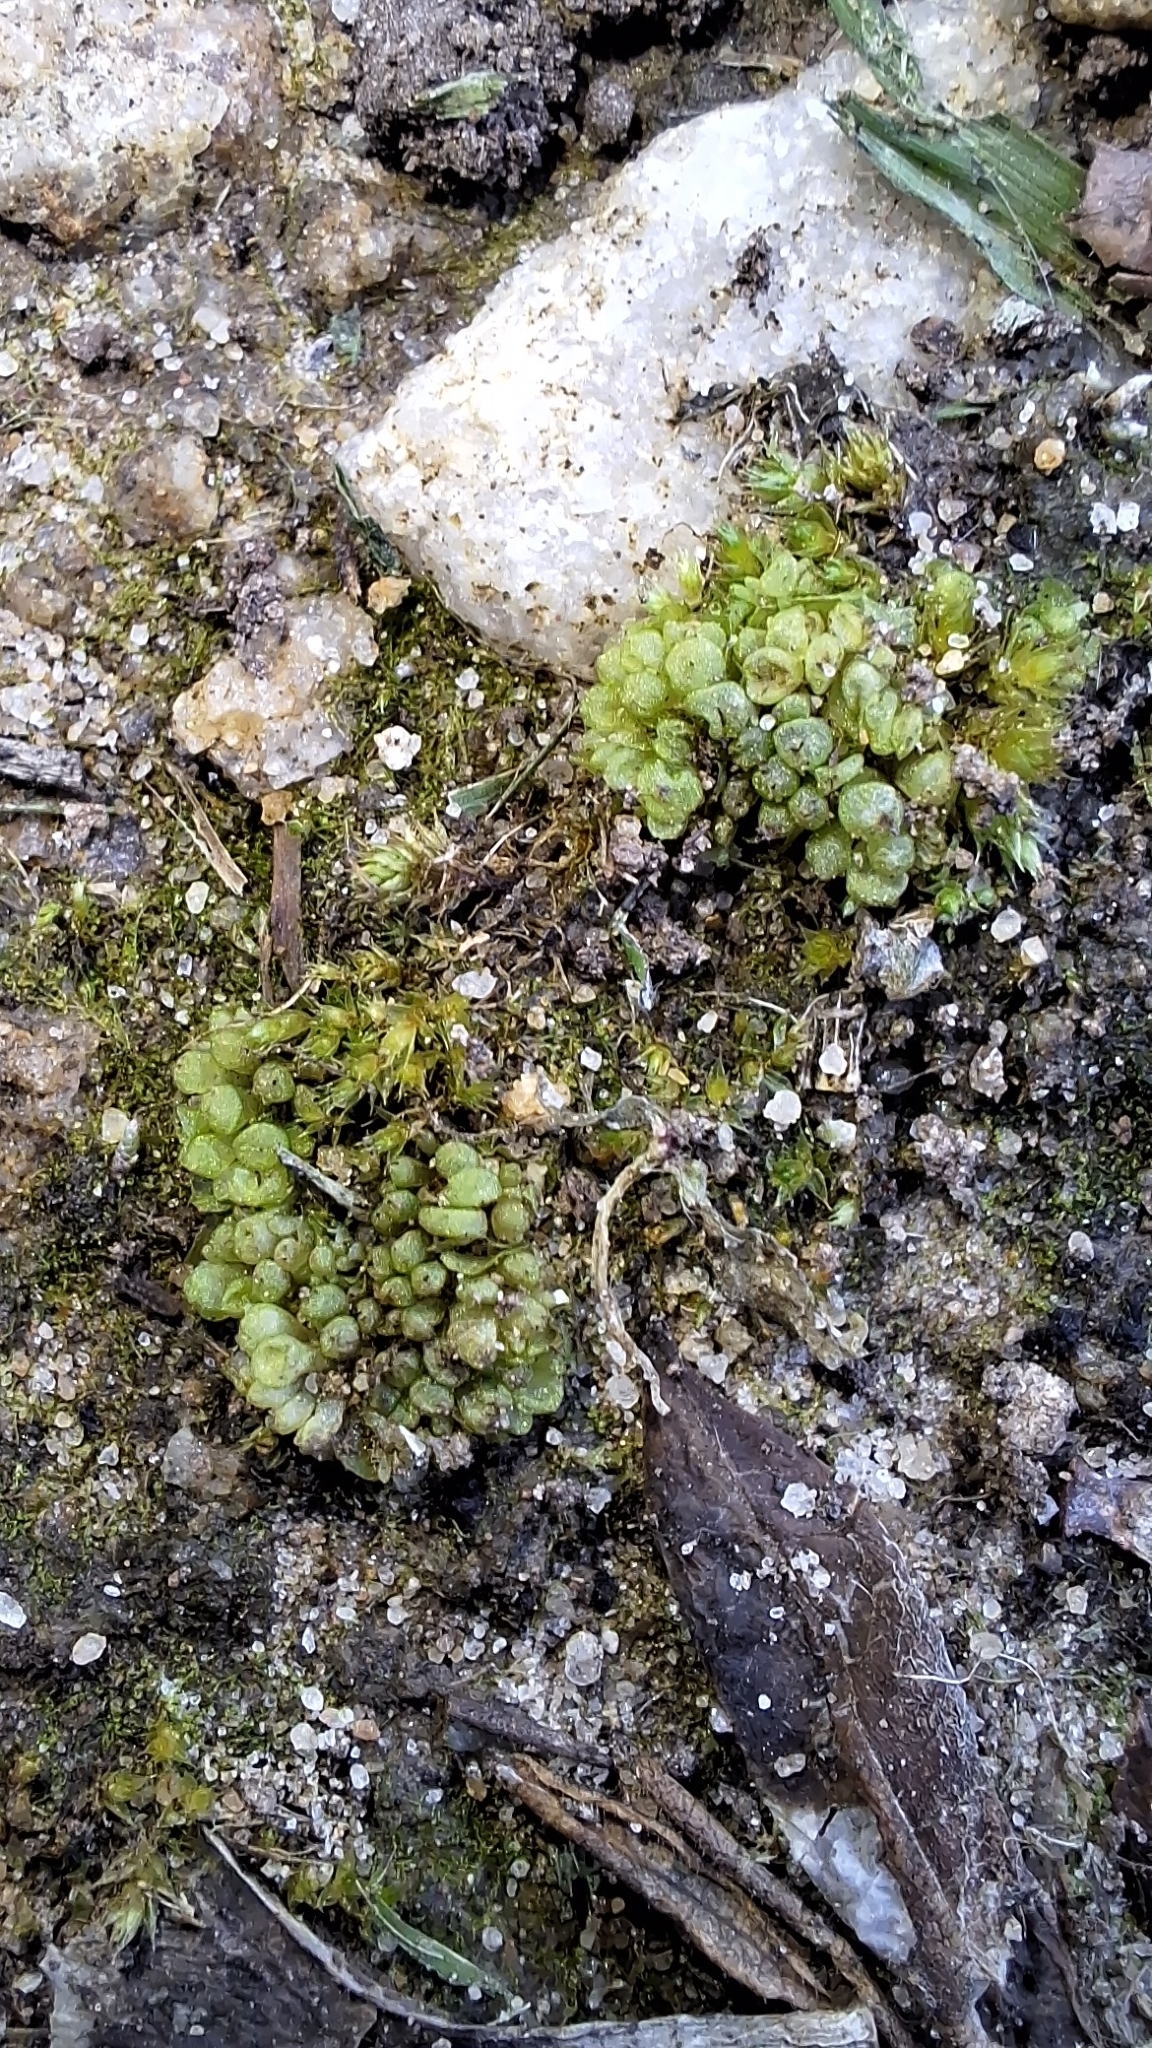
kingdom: Plantae
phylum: Marchantiophyta
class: Marchantiopsida
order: Sphaerocarpales
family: Sphaerocarpaceae
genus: Sphaerocarpos
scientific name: Sphaerocarpos texanus
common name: Texas balloonwort
